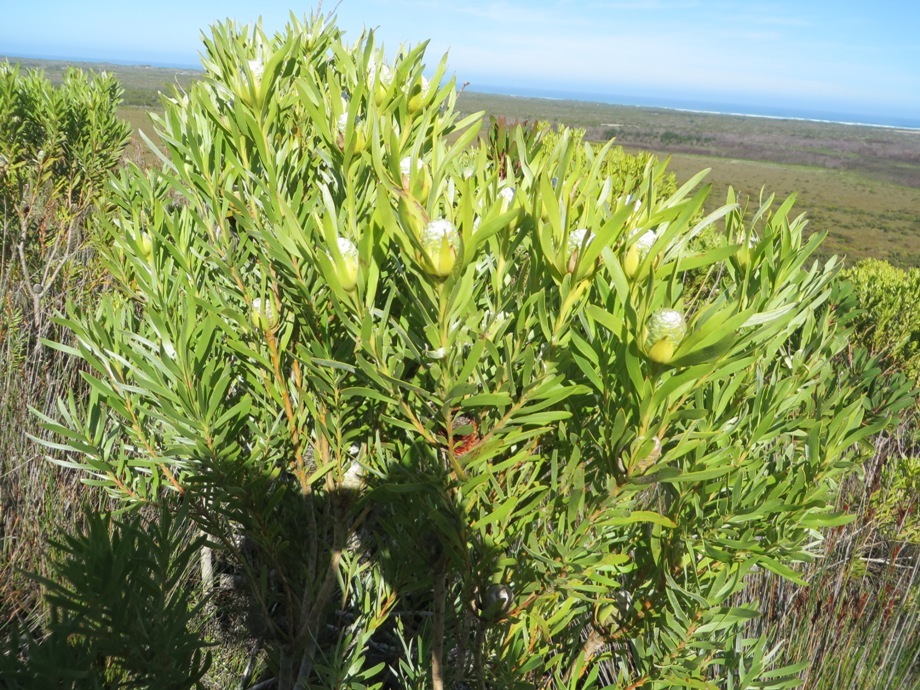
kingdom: Plantae
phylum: Tracheophyta
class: Magnoliopsida
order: Proteales
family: Proteaceae
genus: Leucadendron
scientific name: Leucadendron meridianum
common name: Limestone conebush
